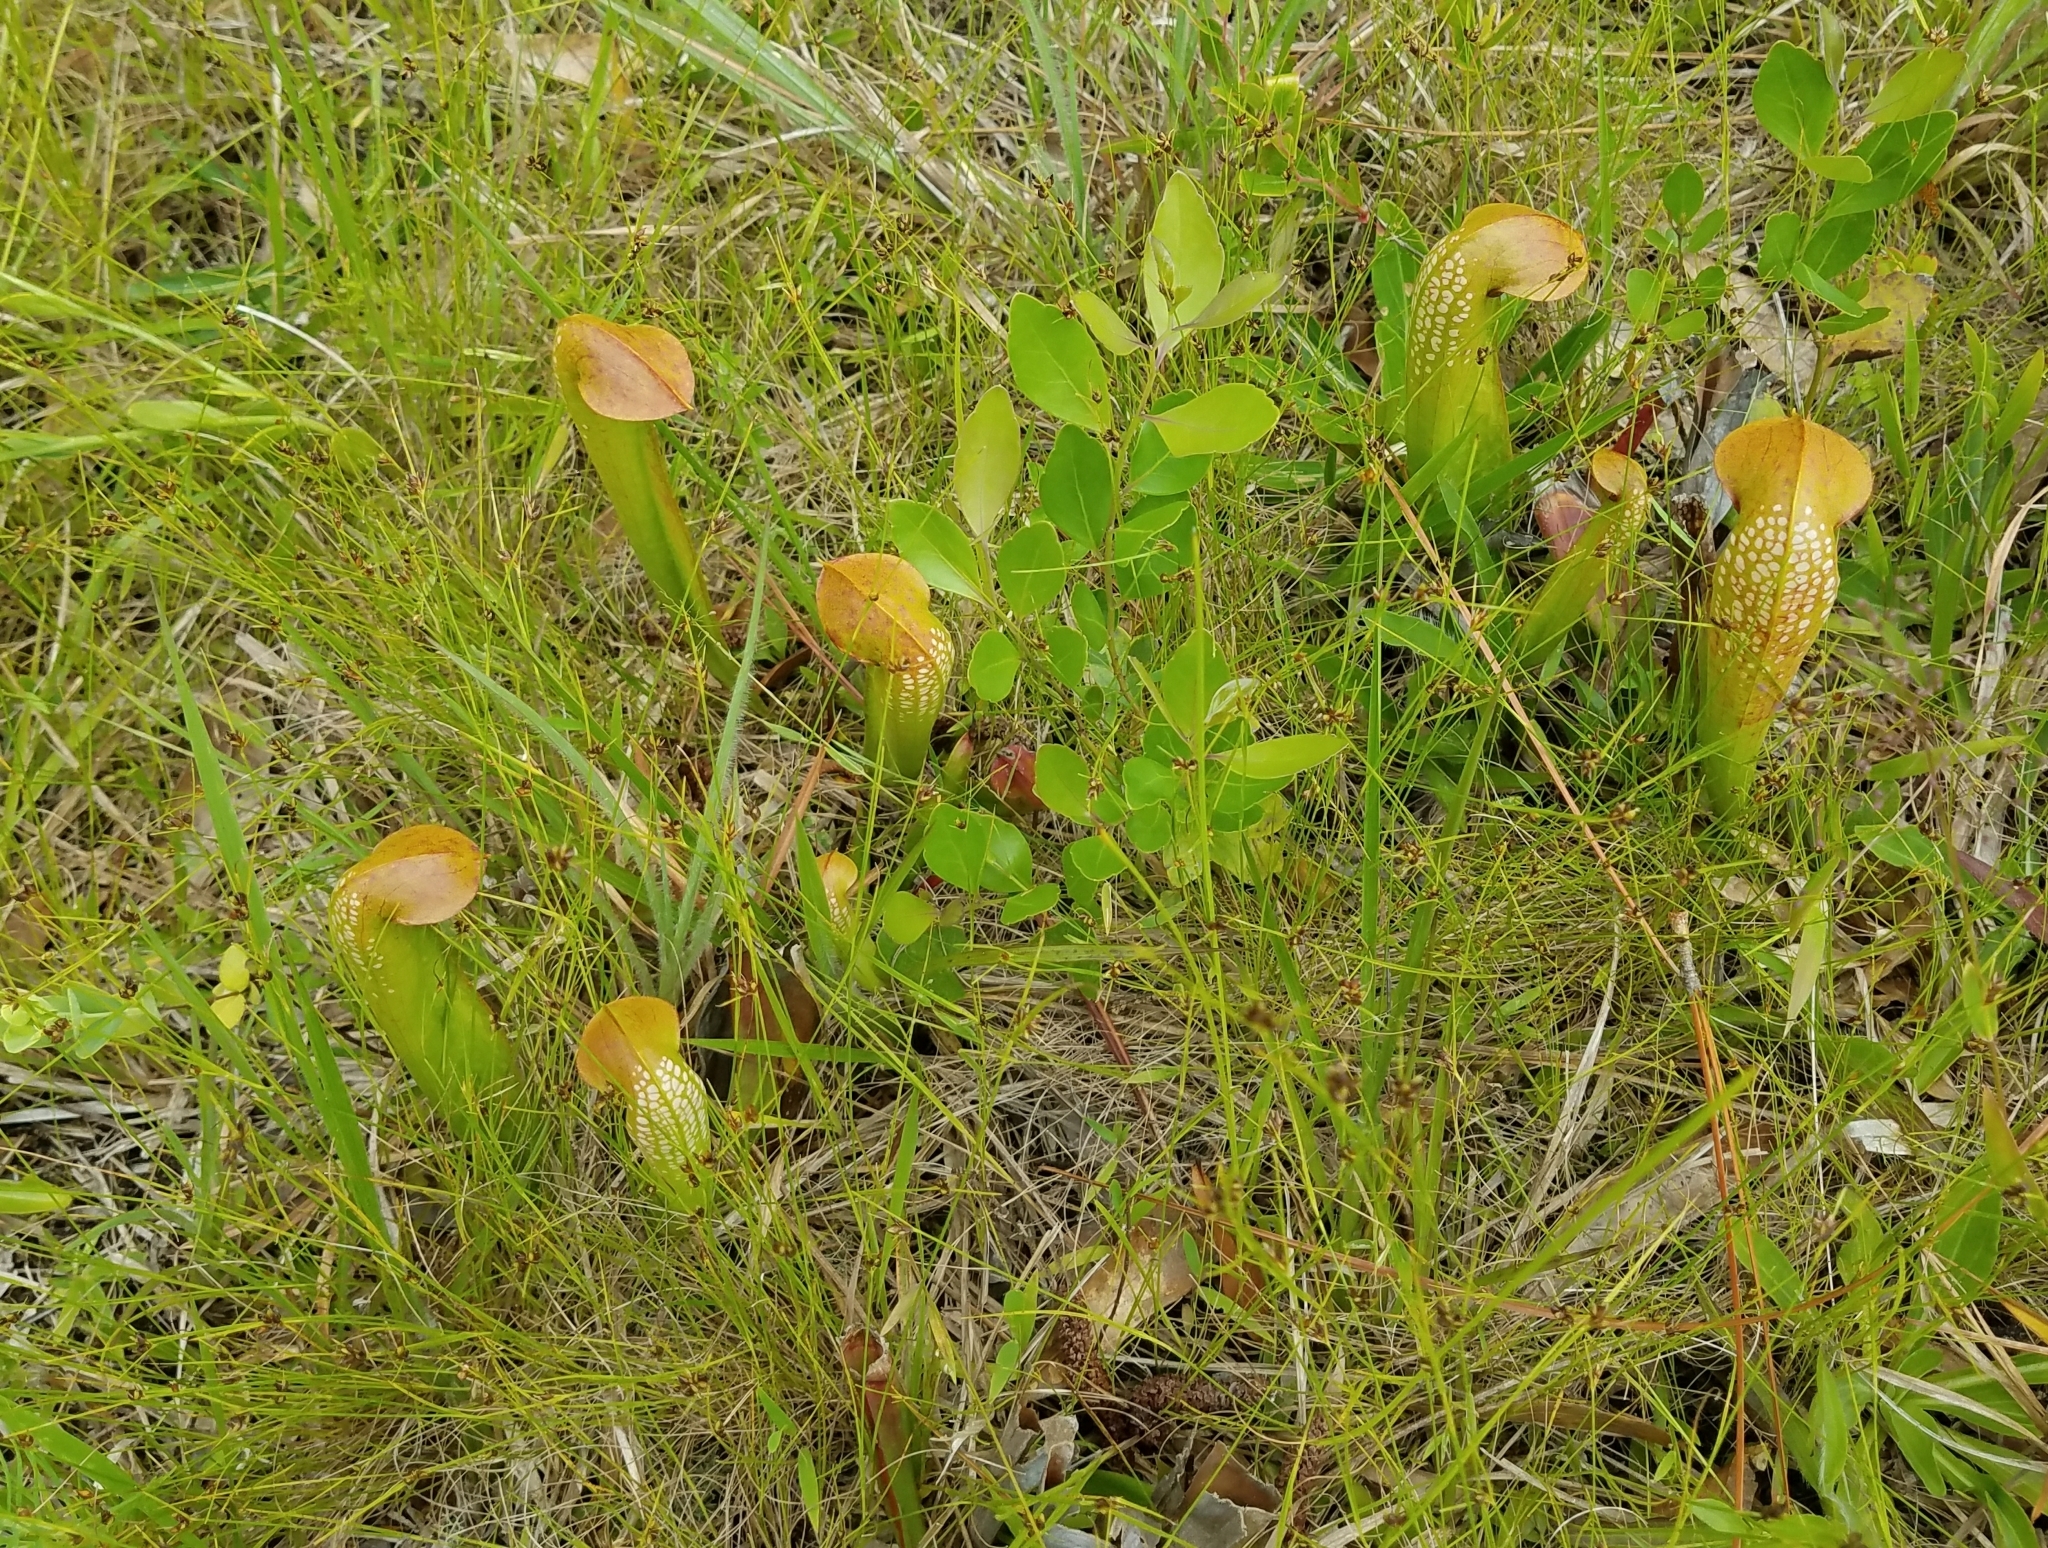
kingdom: Plantae
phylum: Tracheophyta
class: Magnoliopsida
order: Ericales
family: Sarraceniaceae
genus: Sarracenia
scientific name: Sarracenia minor
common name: Rainhat-trumpet
